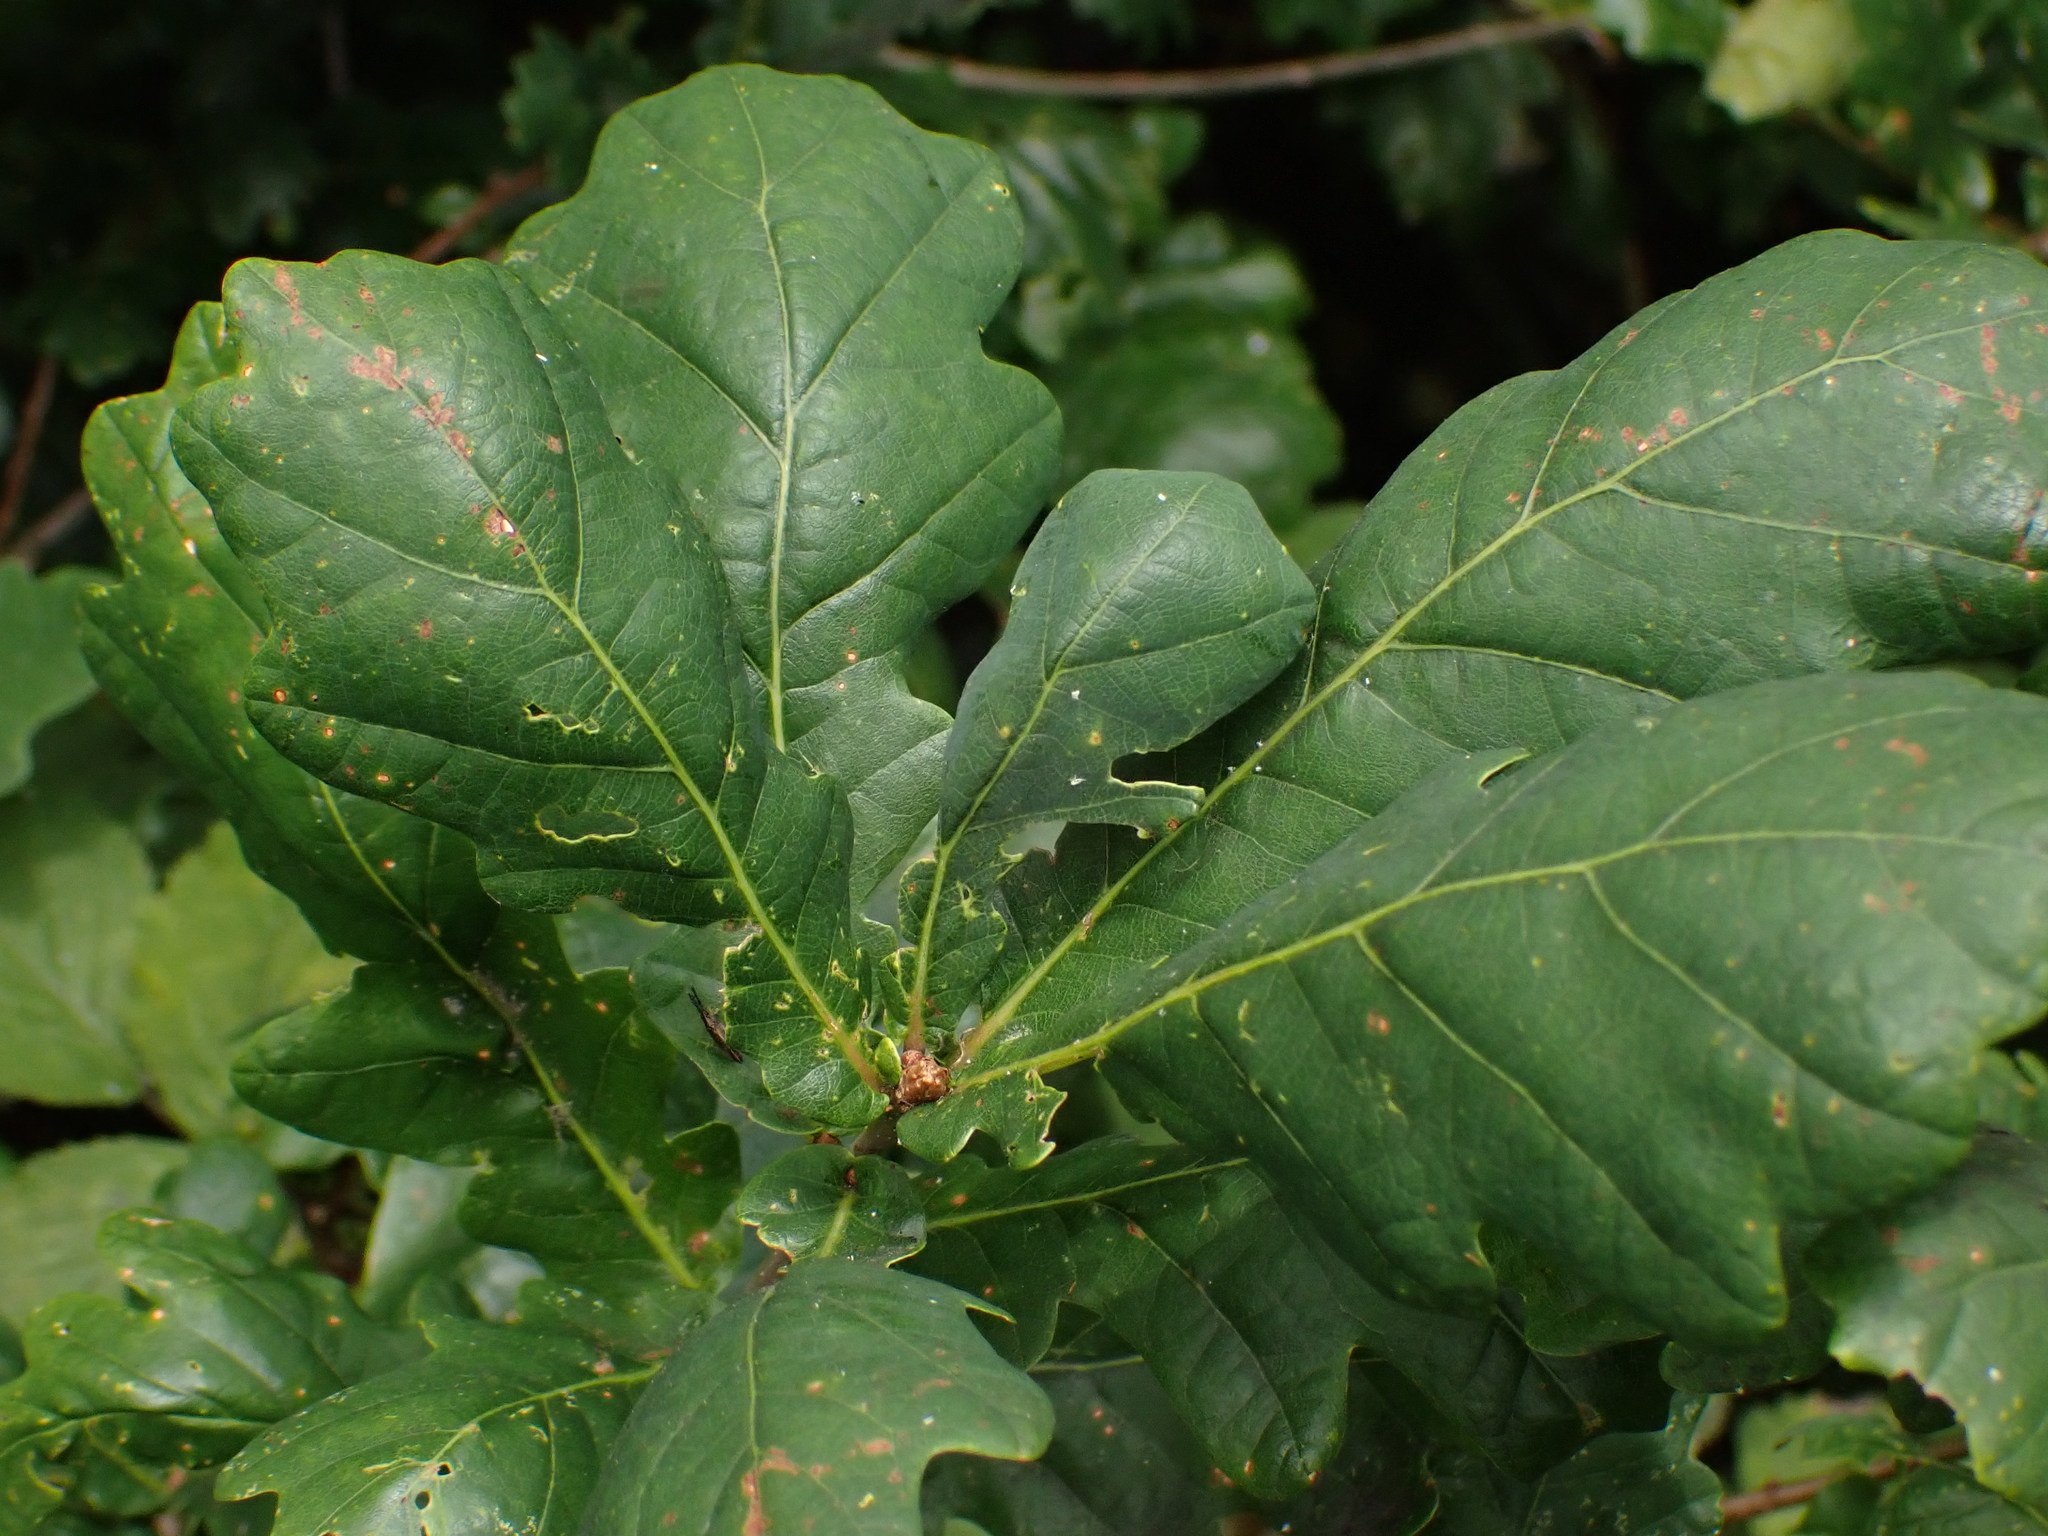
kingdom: Plantae
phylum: Tracheophyta
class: Magnoliopsida
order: Fagales
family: Fagaceae
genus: Quercus
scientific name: Quercus robur
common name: Pedunculate oak
